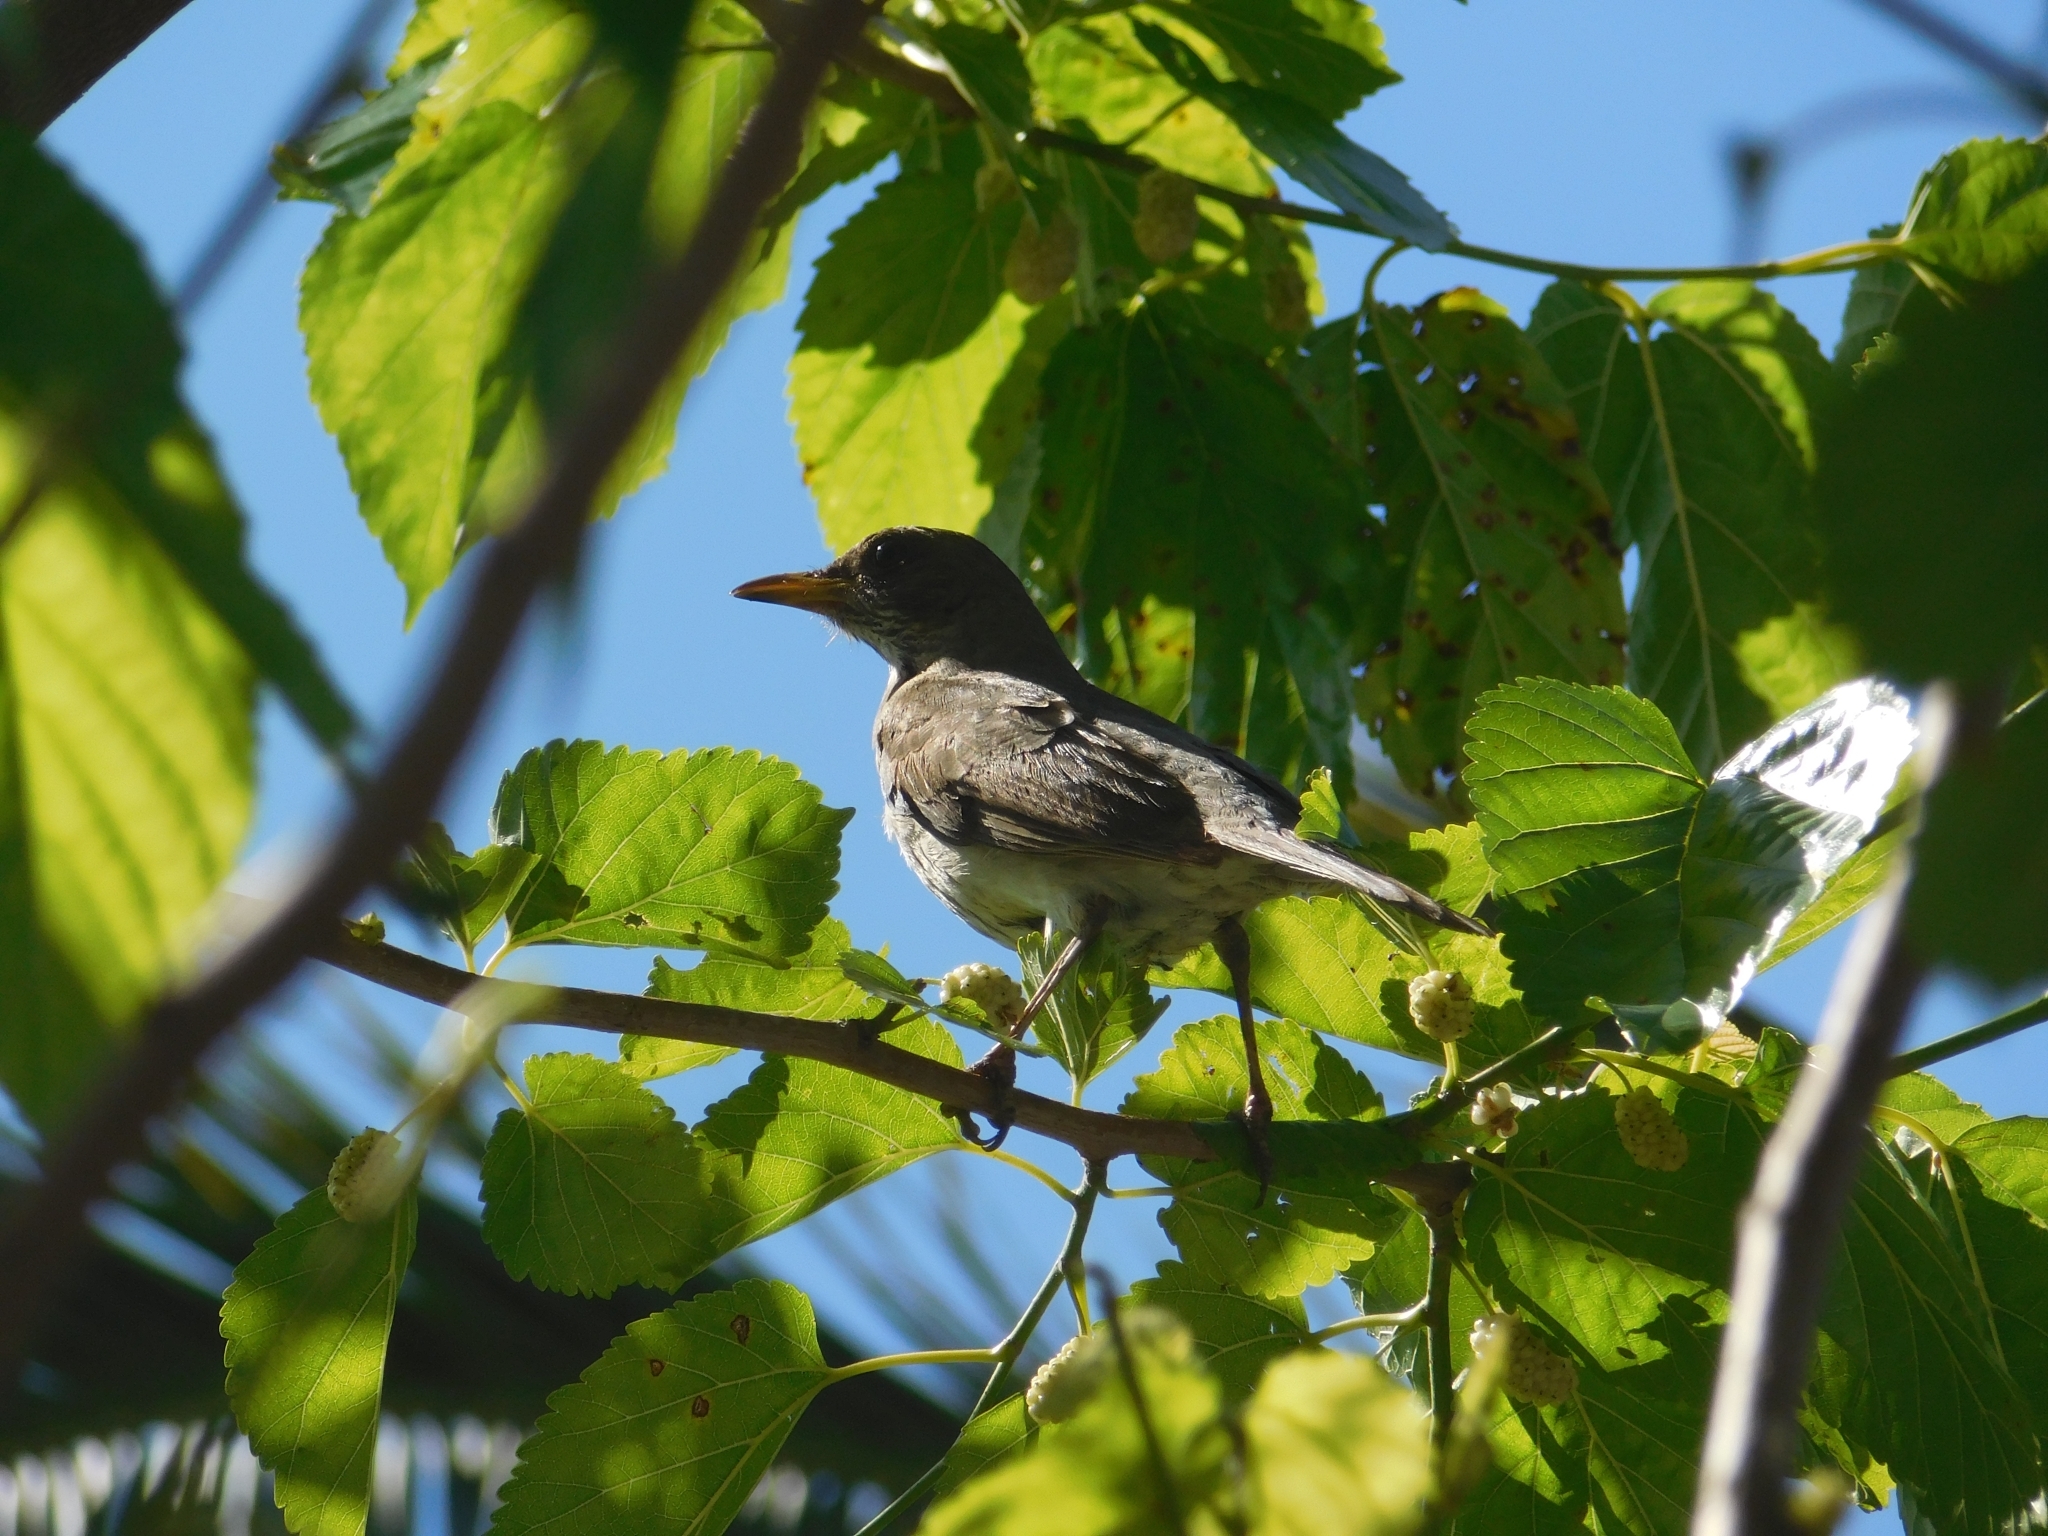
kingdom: Animalia
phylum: Chordata
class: Aves
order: Passeriformes
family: Turdidae
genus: Turdus
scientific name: Turdus amaurochalinus
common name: Creamy-bellied thrush
